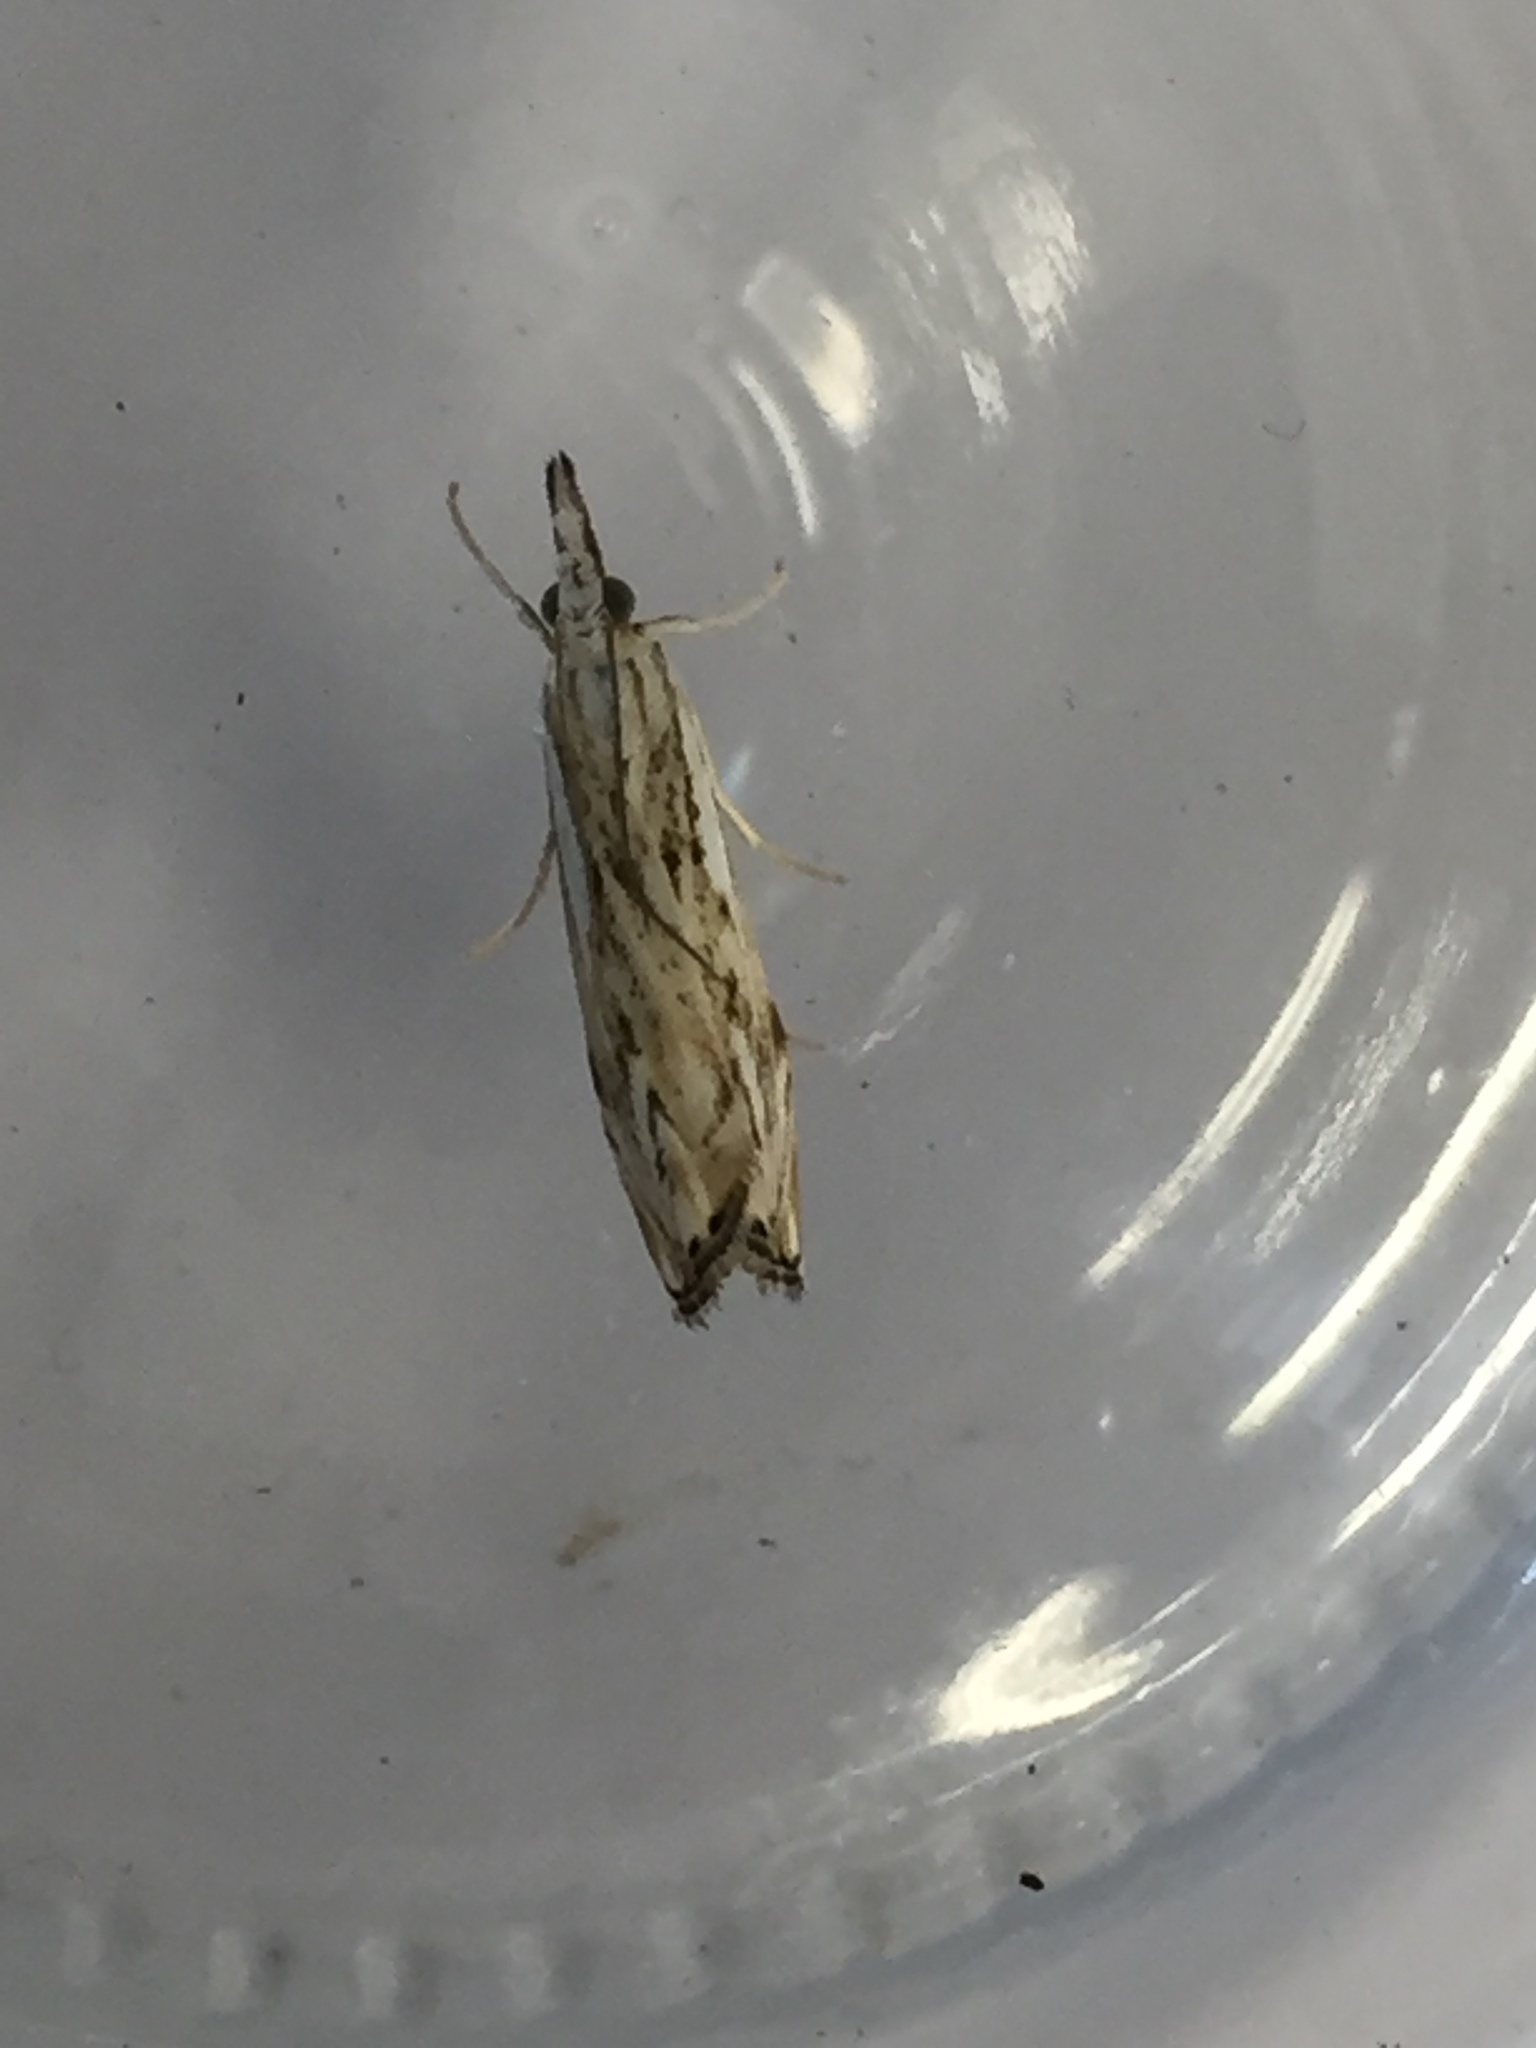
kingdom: Animalia
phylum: Arthropoda
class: Insecta
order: Lepidoptera
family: Crambidae
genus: Catoptria
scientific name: Catoptria falsella
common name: Chequered grass-veneer
